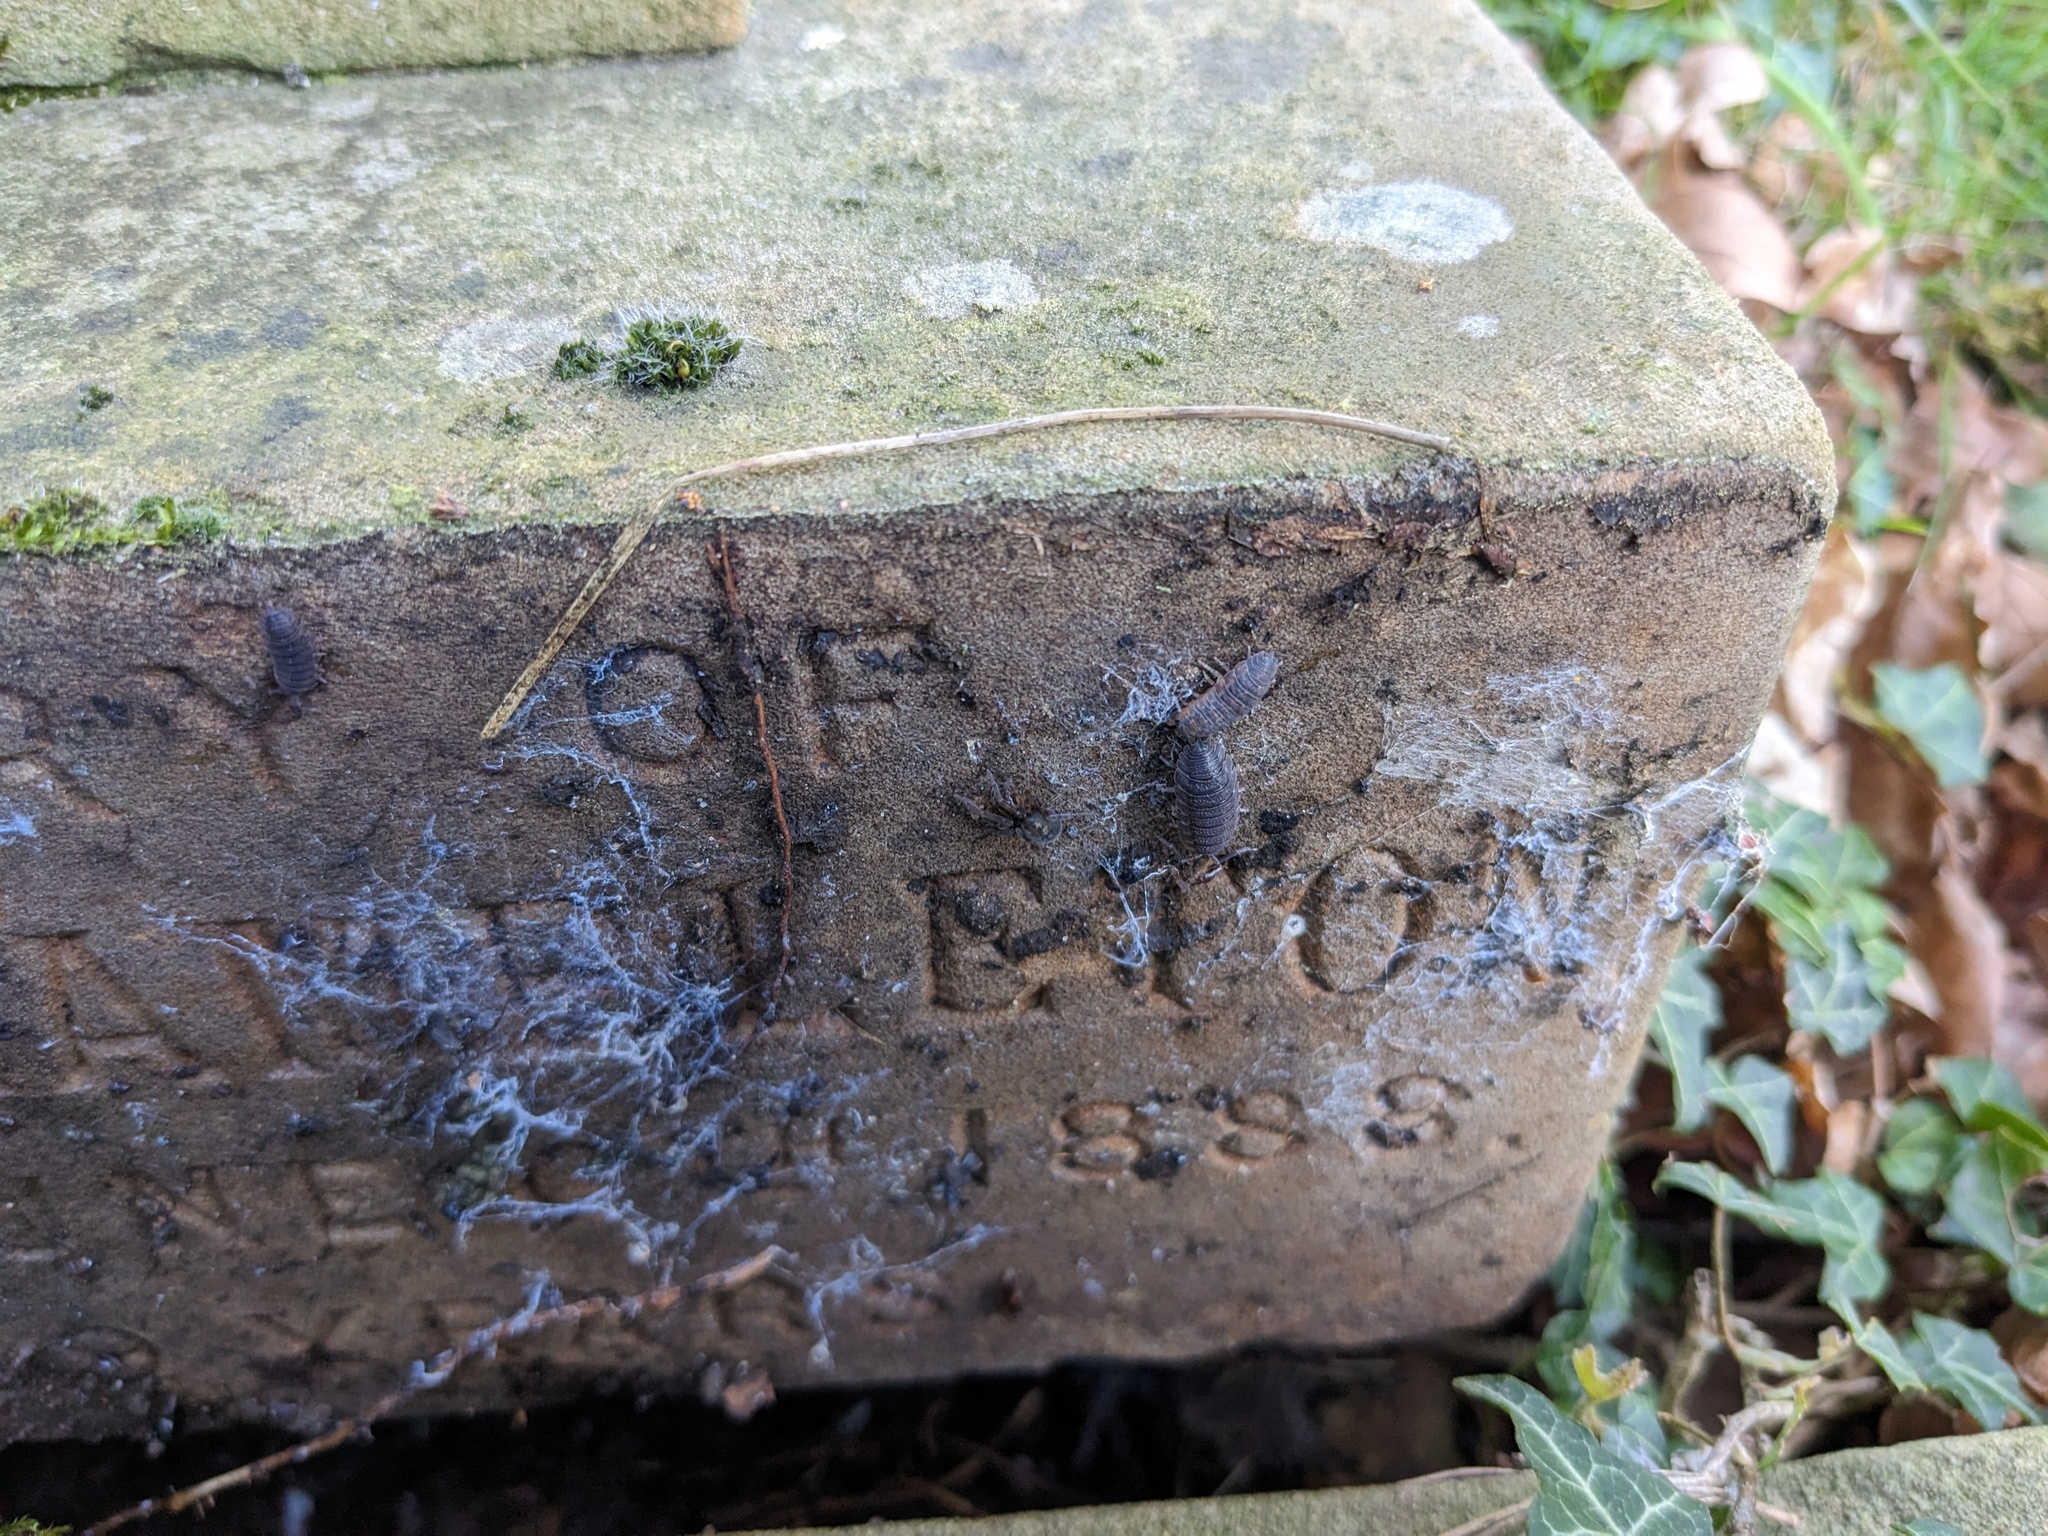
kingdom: Animalia
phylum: Arthropoda
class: Malacostraca
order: Isopoda
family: Porcellionidae
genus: Porcellio
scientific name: Porcellio scaber
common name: Common rough woodlouse
